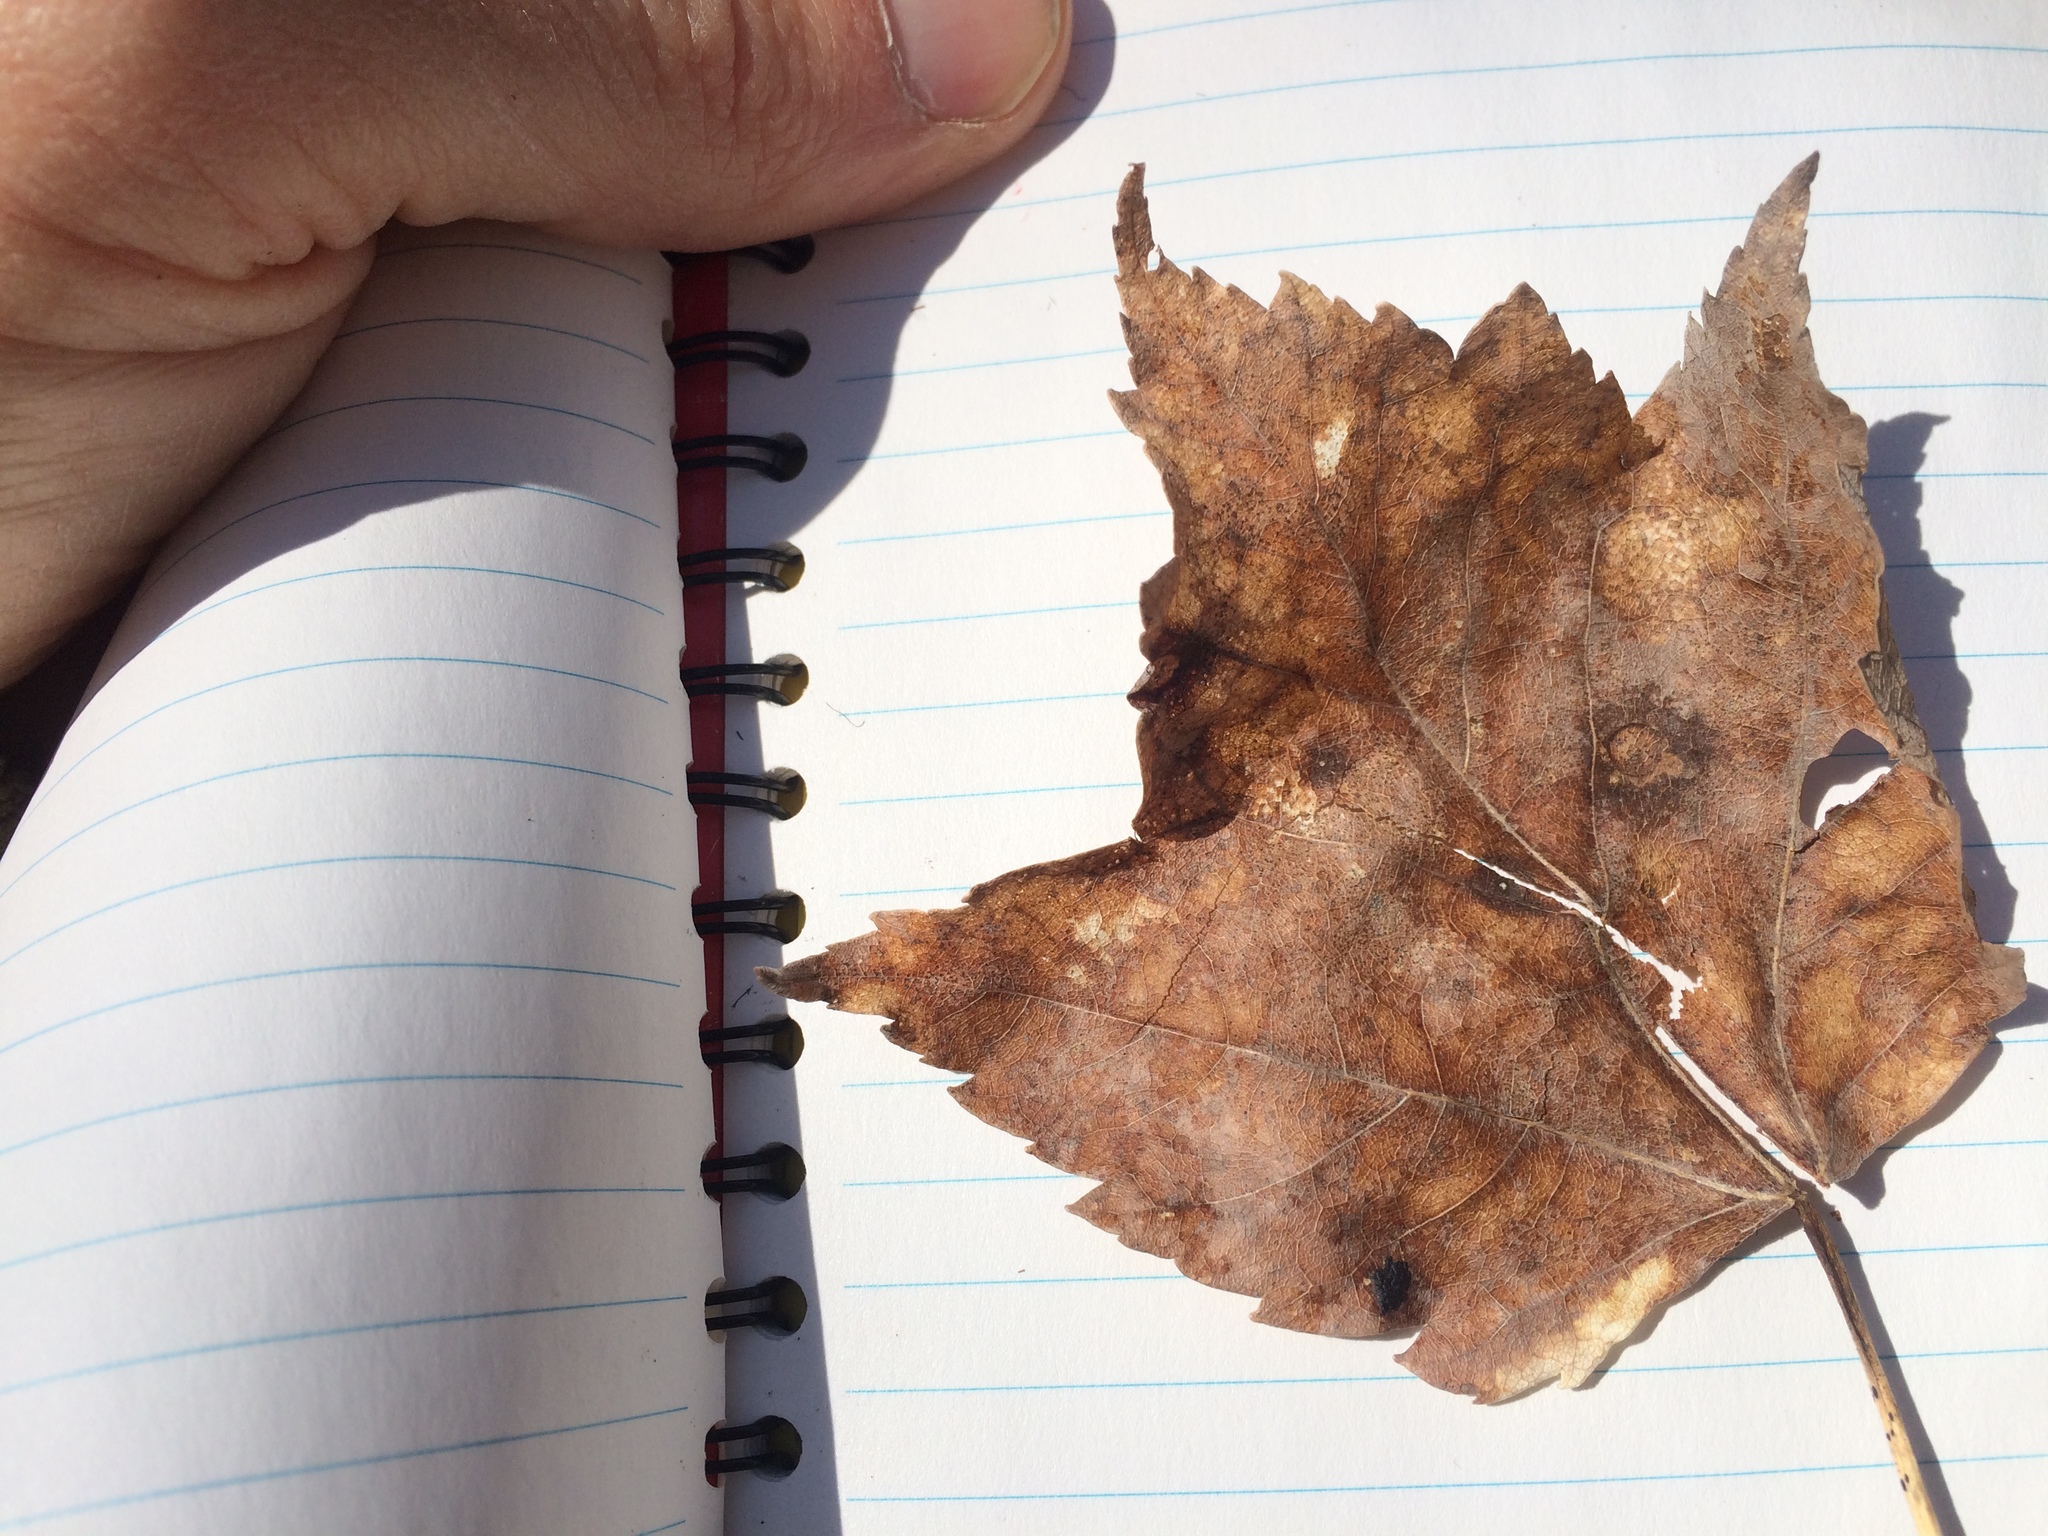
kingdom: Plantae
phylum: Tracheophyta
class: Magnoliopsida
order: Sapindales
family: Sapindaceae
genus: Acer
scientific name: Acer rubrum
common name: Red maple
